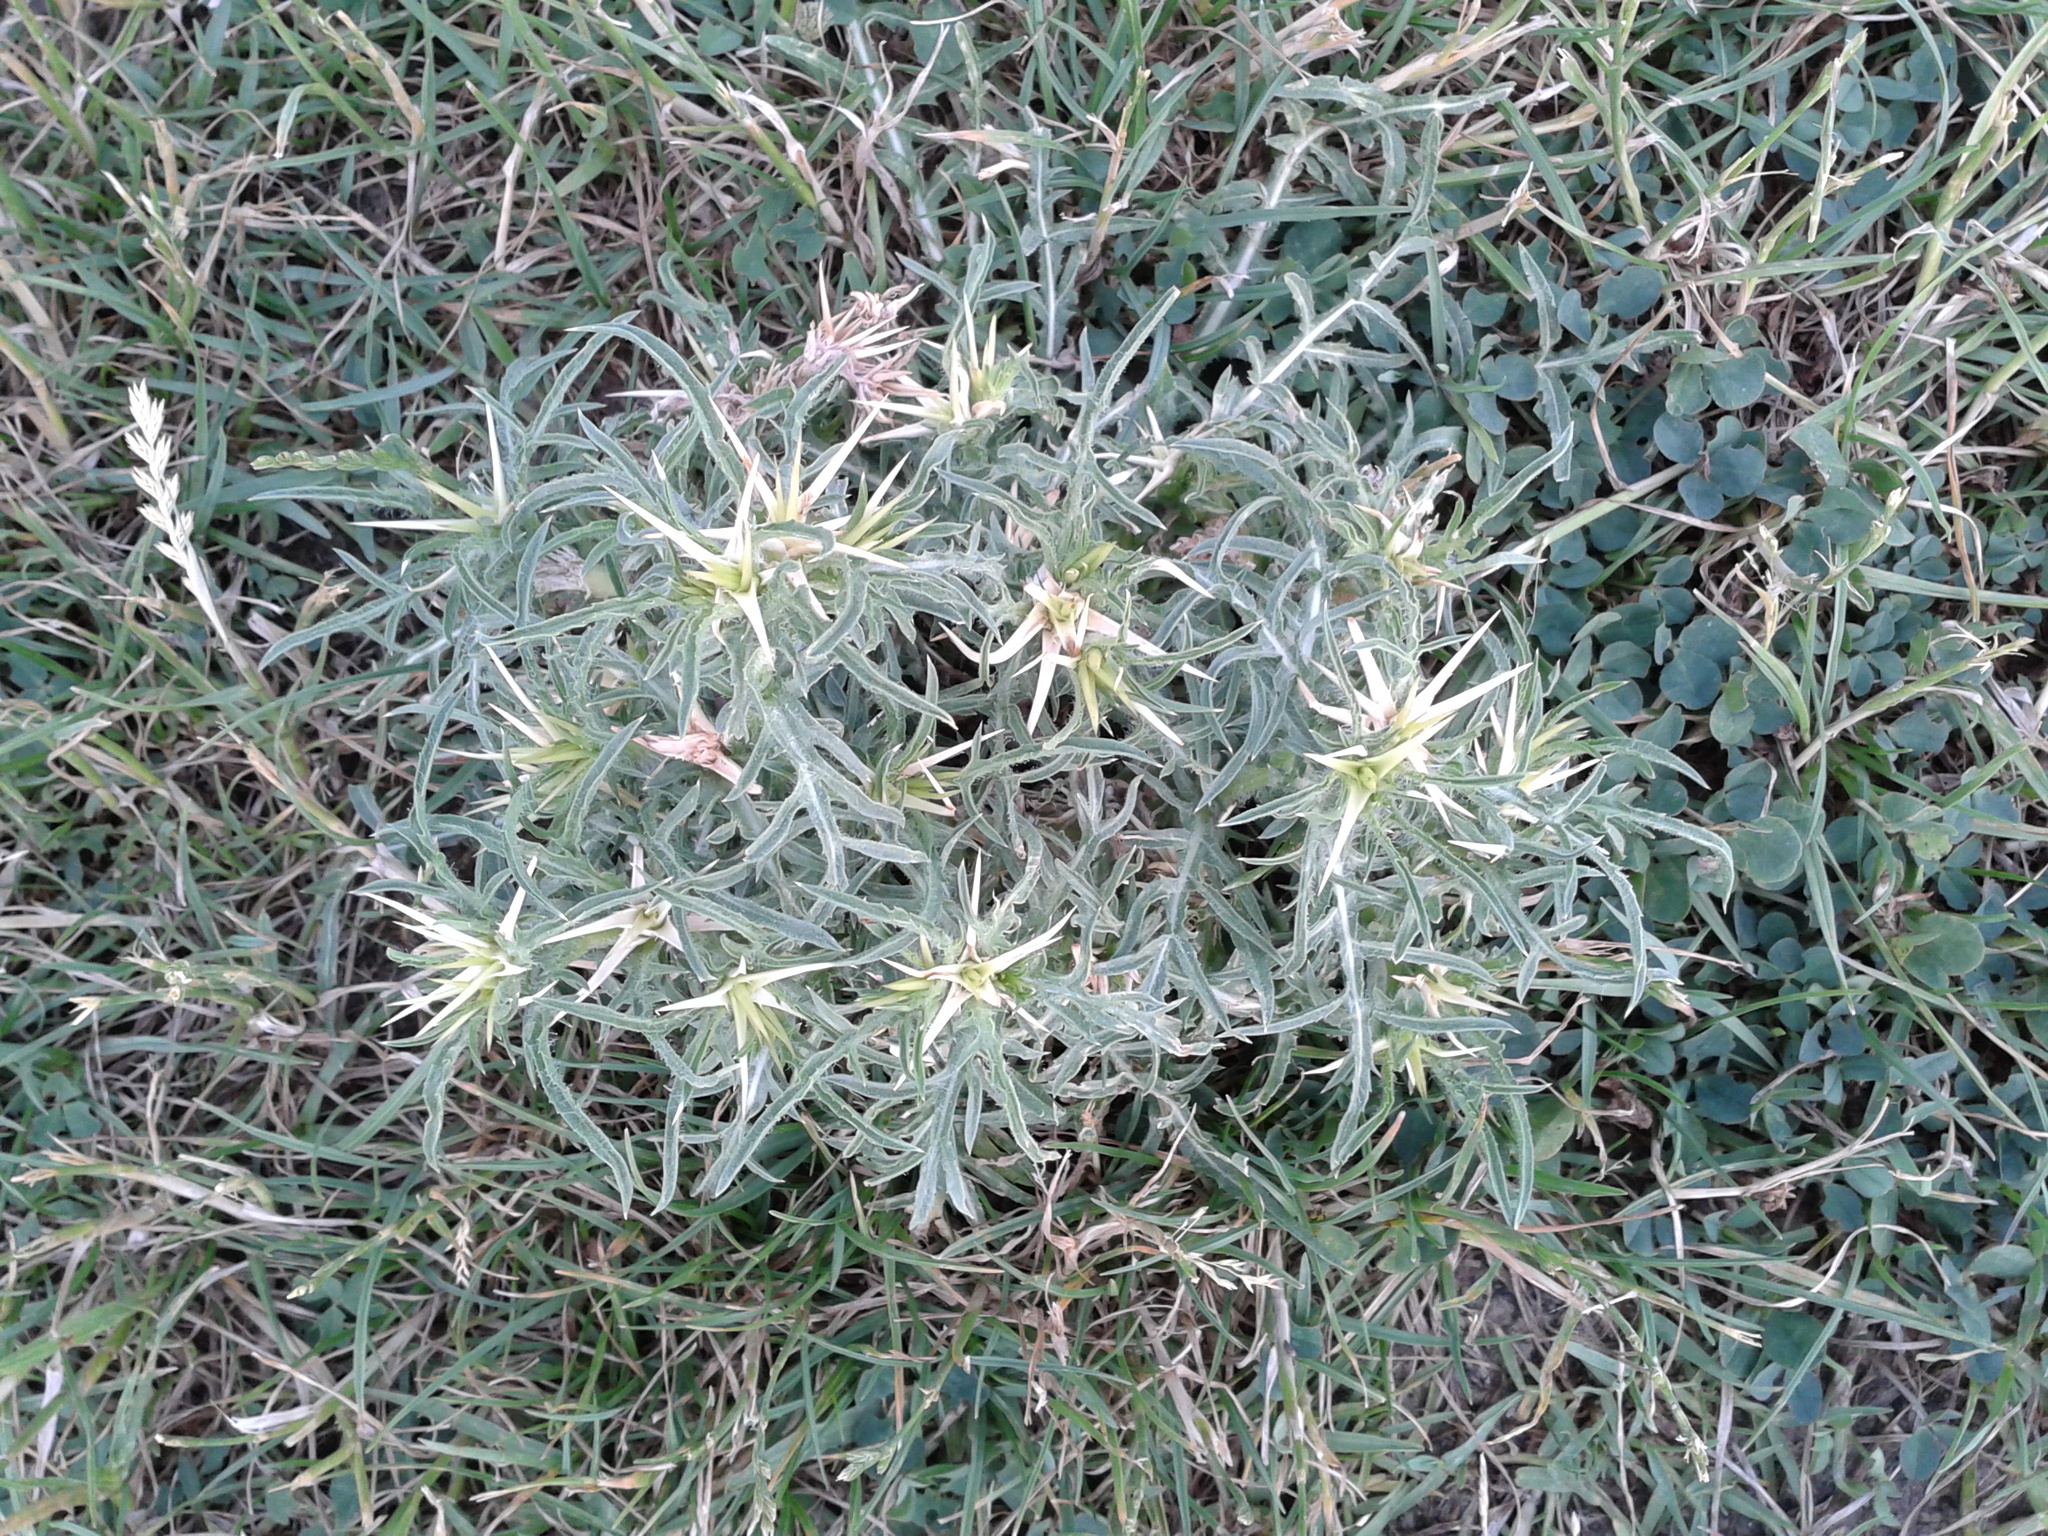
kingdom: Plantae
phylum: Tracheophyta
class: Magnoliopsida
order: Asterales
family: Asteraceae
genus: Centaurea
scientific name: Centaurea calcitrapa
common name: Red star-thistle
